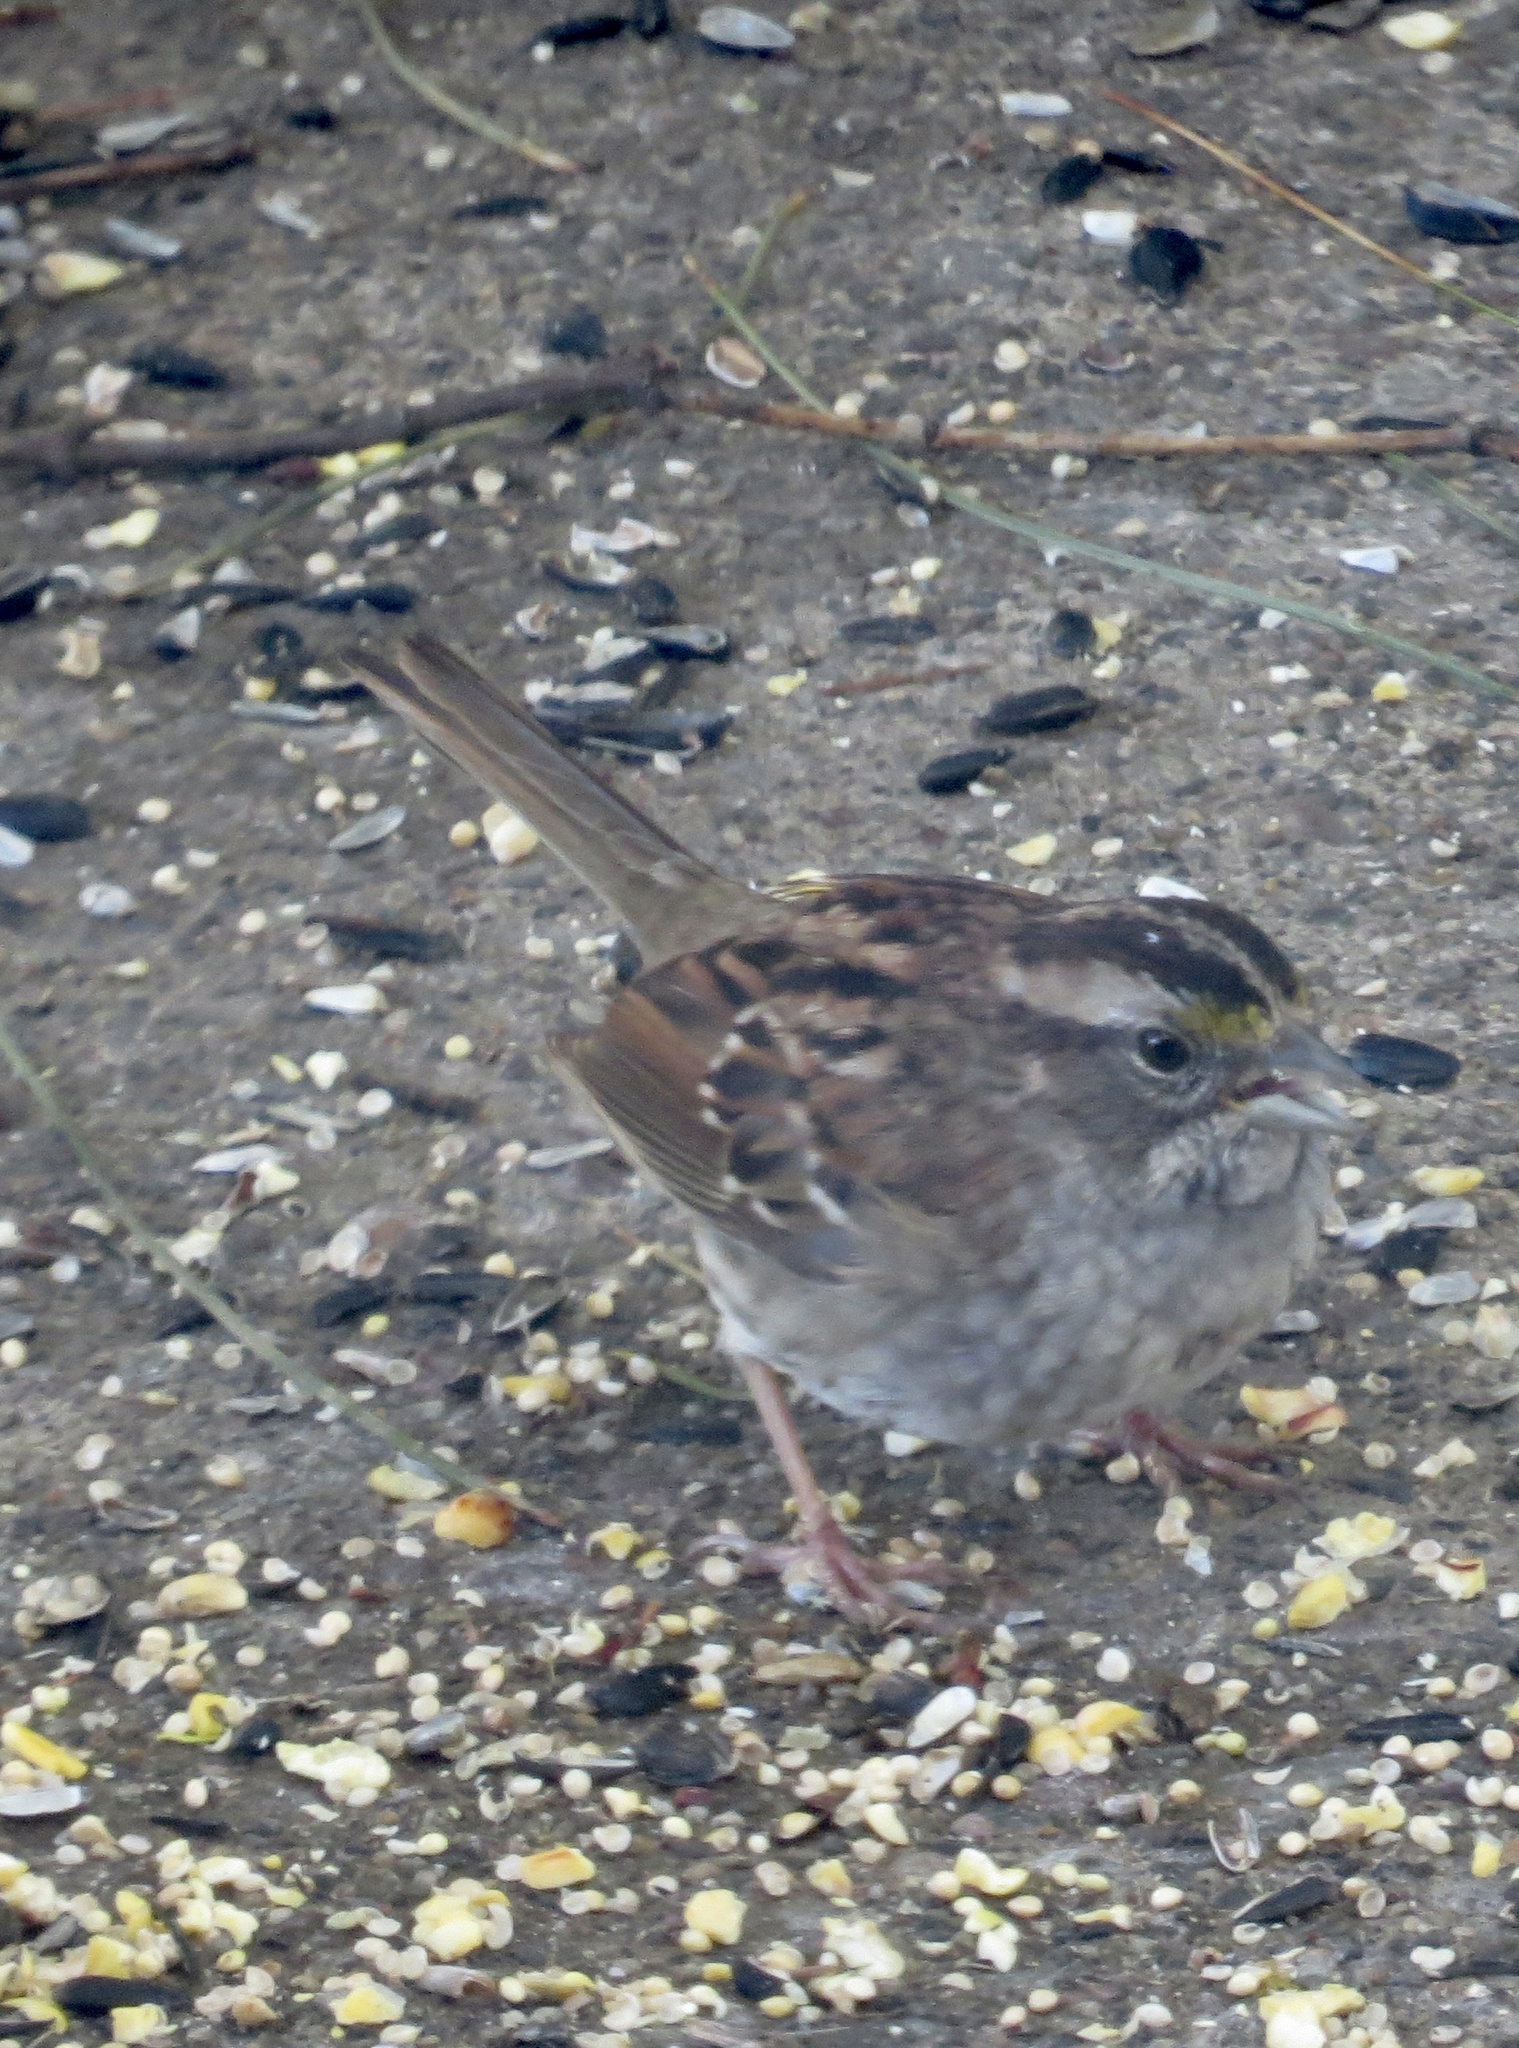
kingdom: Animalia
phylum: Chordata
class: Aves
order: Passeriformes
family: Passerellidae
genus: Zonotrichia
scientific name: Zonotrichia albicollis
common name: White-throated sparrow
